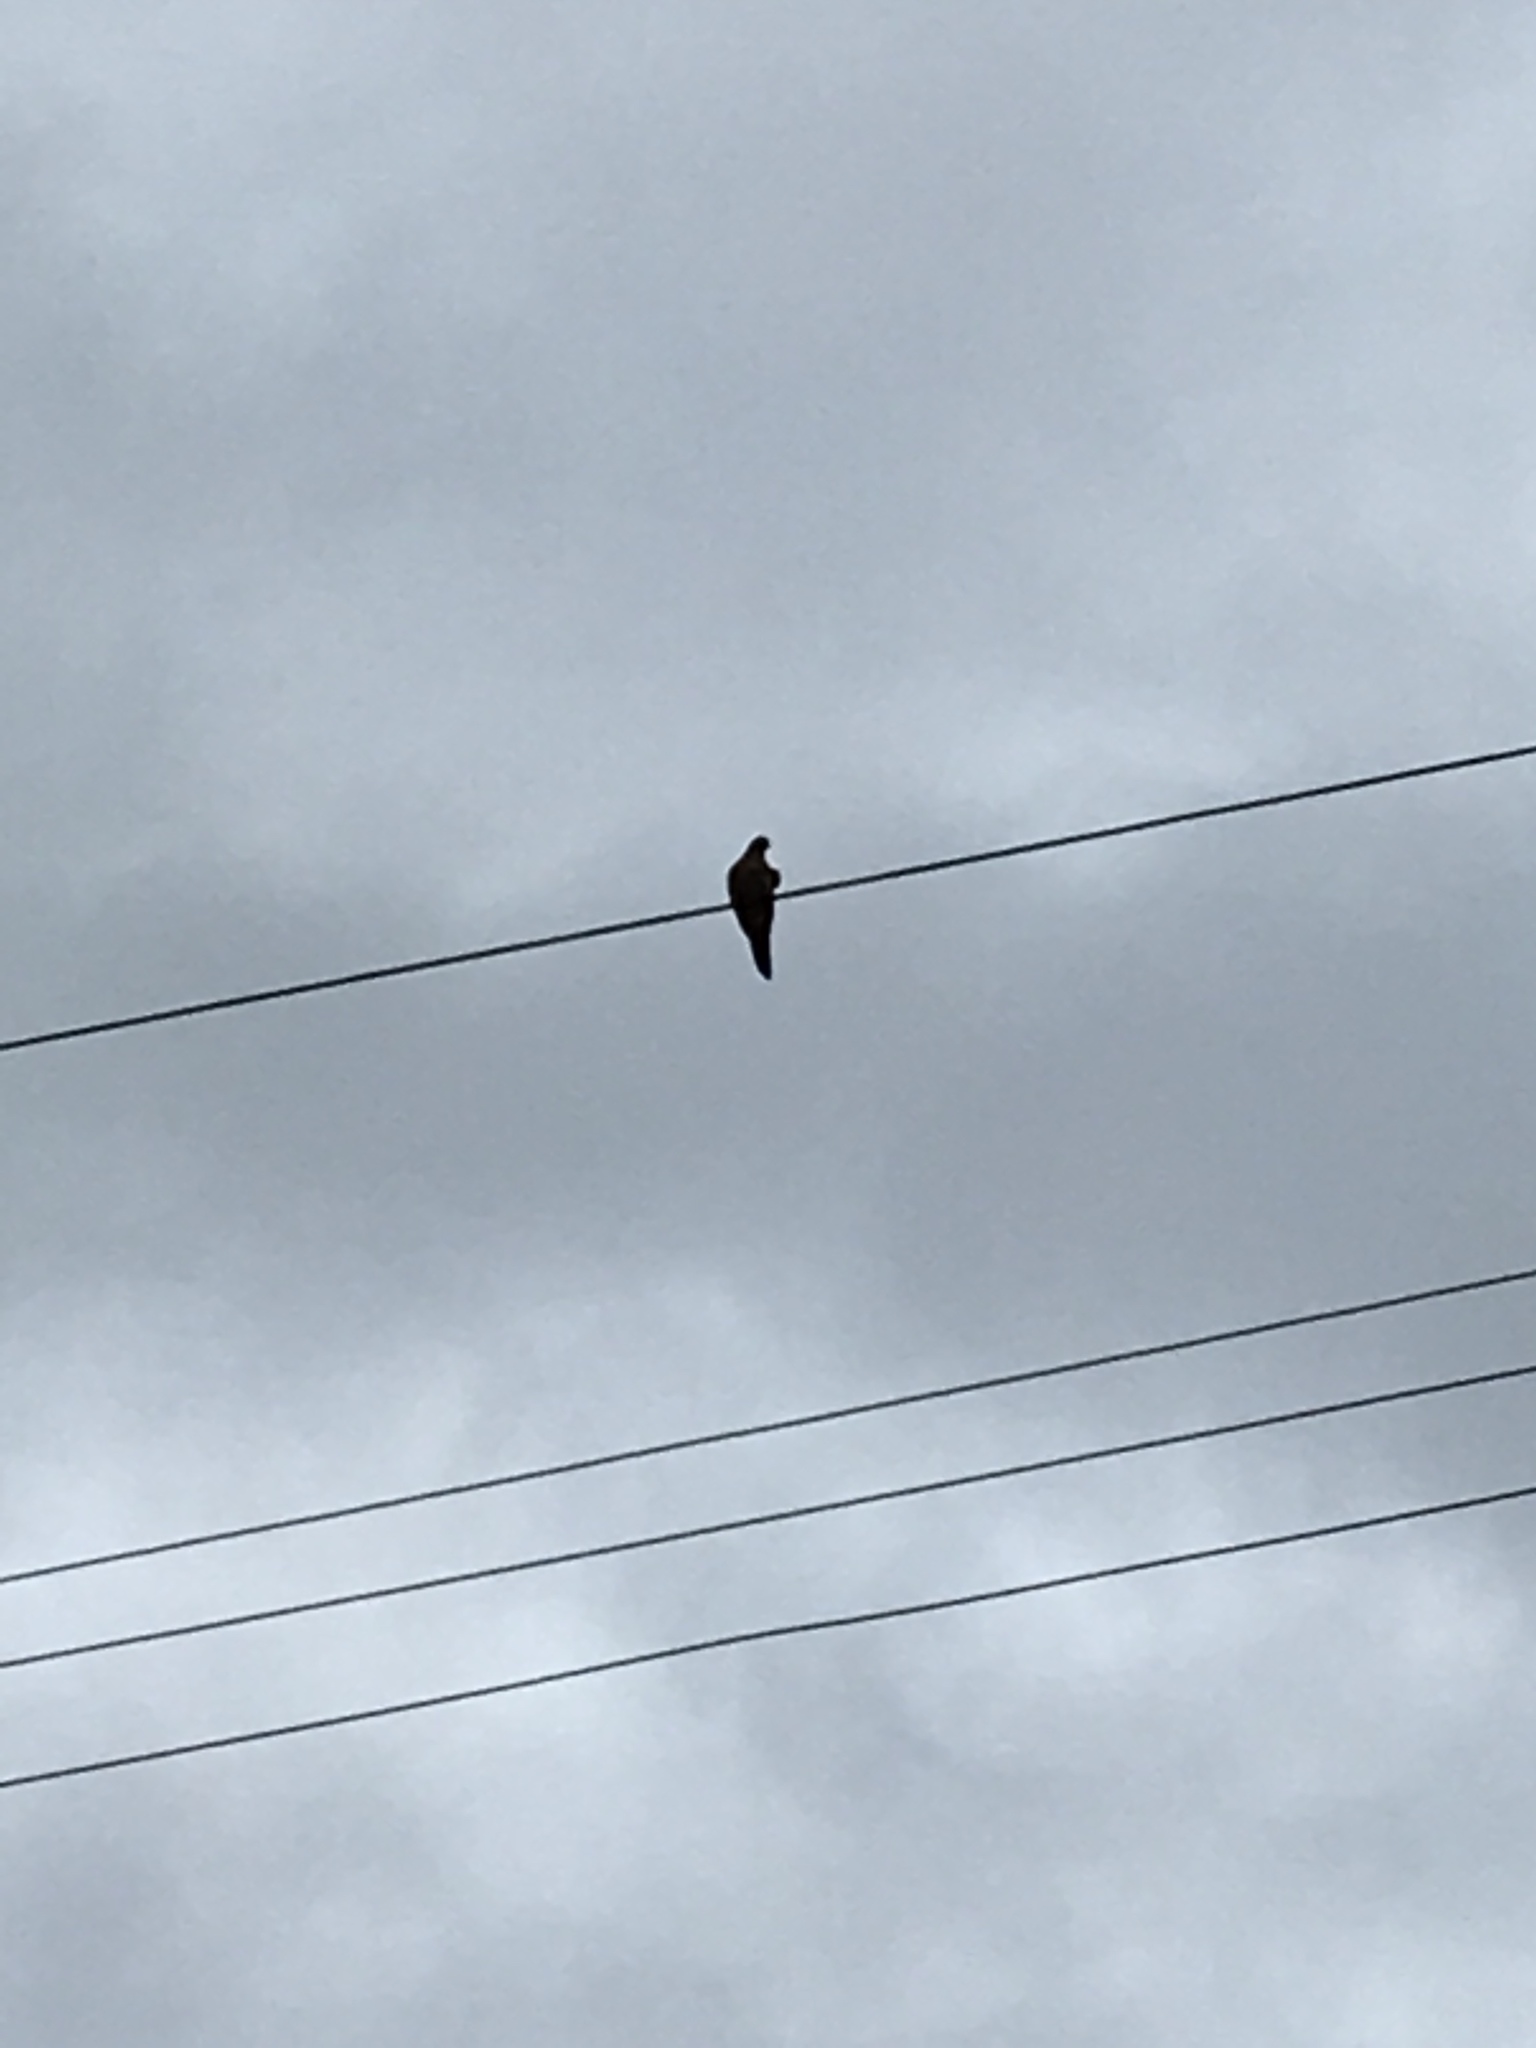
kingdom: Animalia
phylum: Chordata
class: Aves
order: Columbiformes
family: Columbidae
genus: Zenaida
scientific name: Zenaida macroura
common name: Mourning dove
